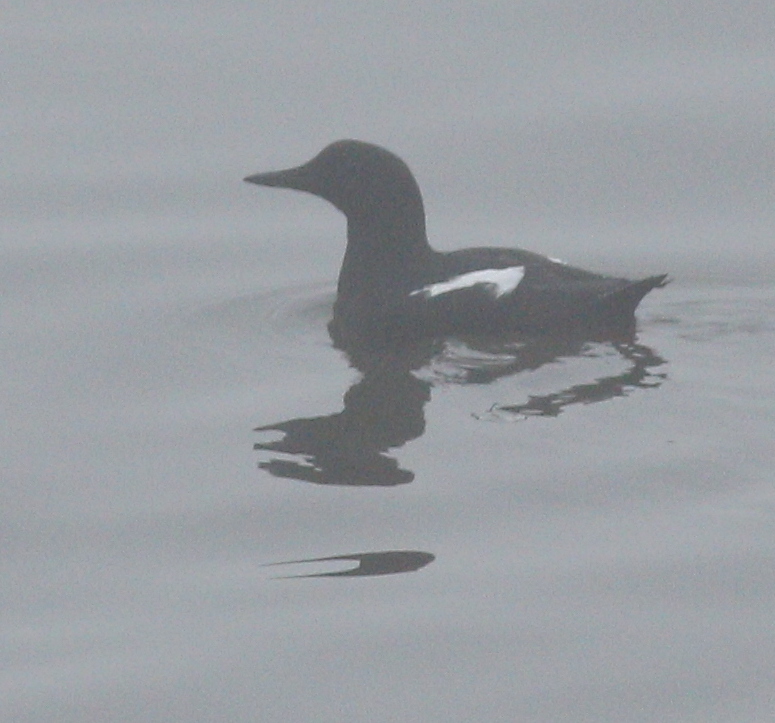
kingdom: Animalia
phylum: Chordata
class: Aves
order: Charadriiformes
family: Alcidae
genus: Cepphus
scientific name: Cepphus grylle
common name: Black guillemot
